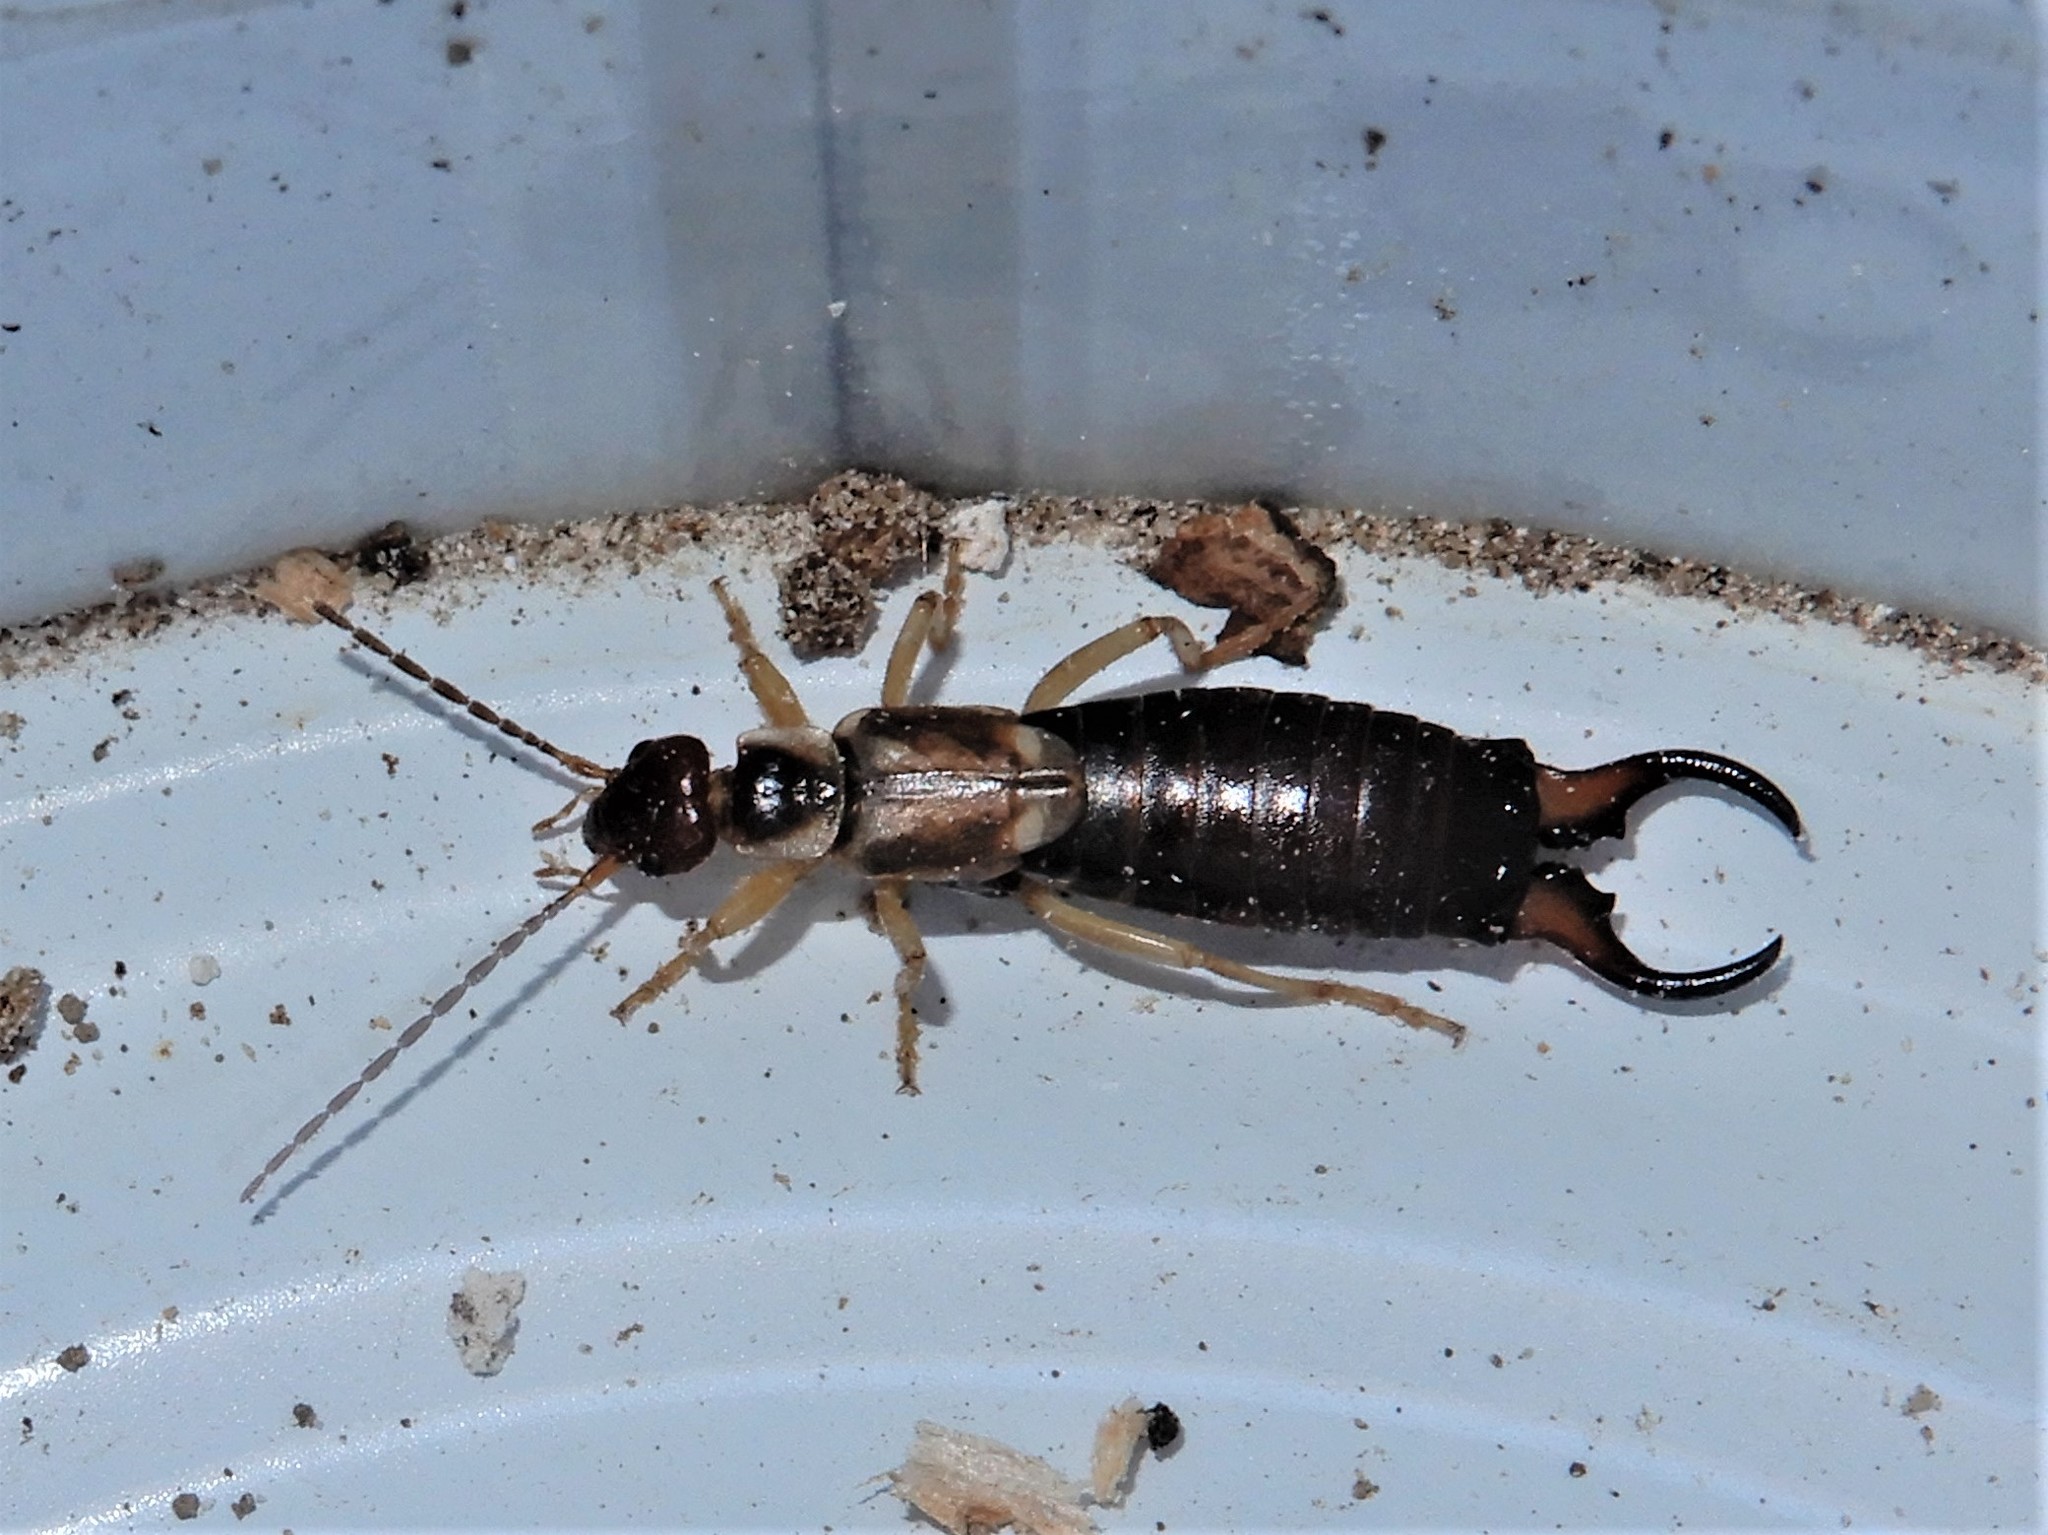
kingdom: Animalia
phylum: Arthropoda
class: Insecta
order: Dermaptera
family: Forficulidae
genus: Forficula
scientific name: Forficula
